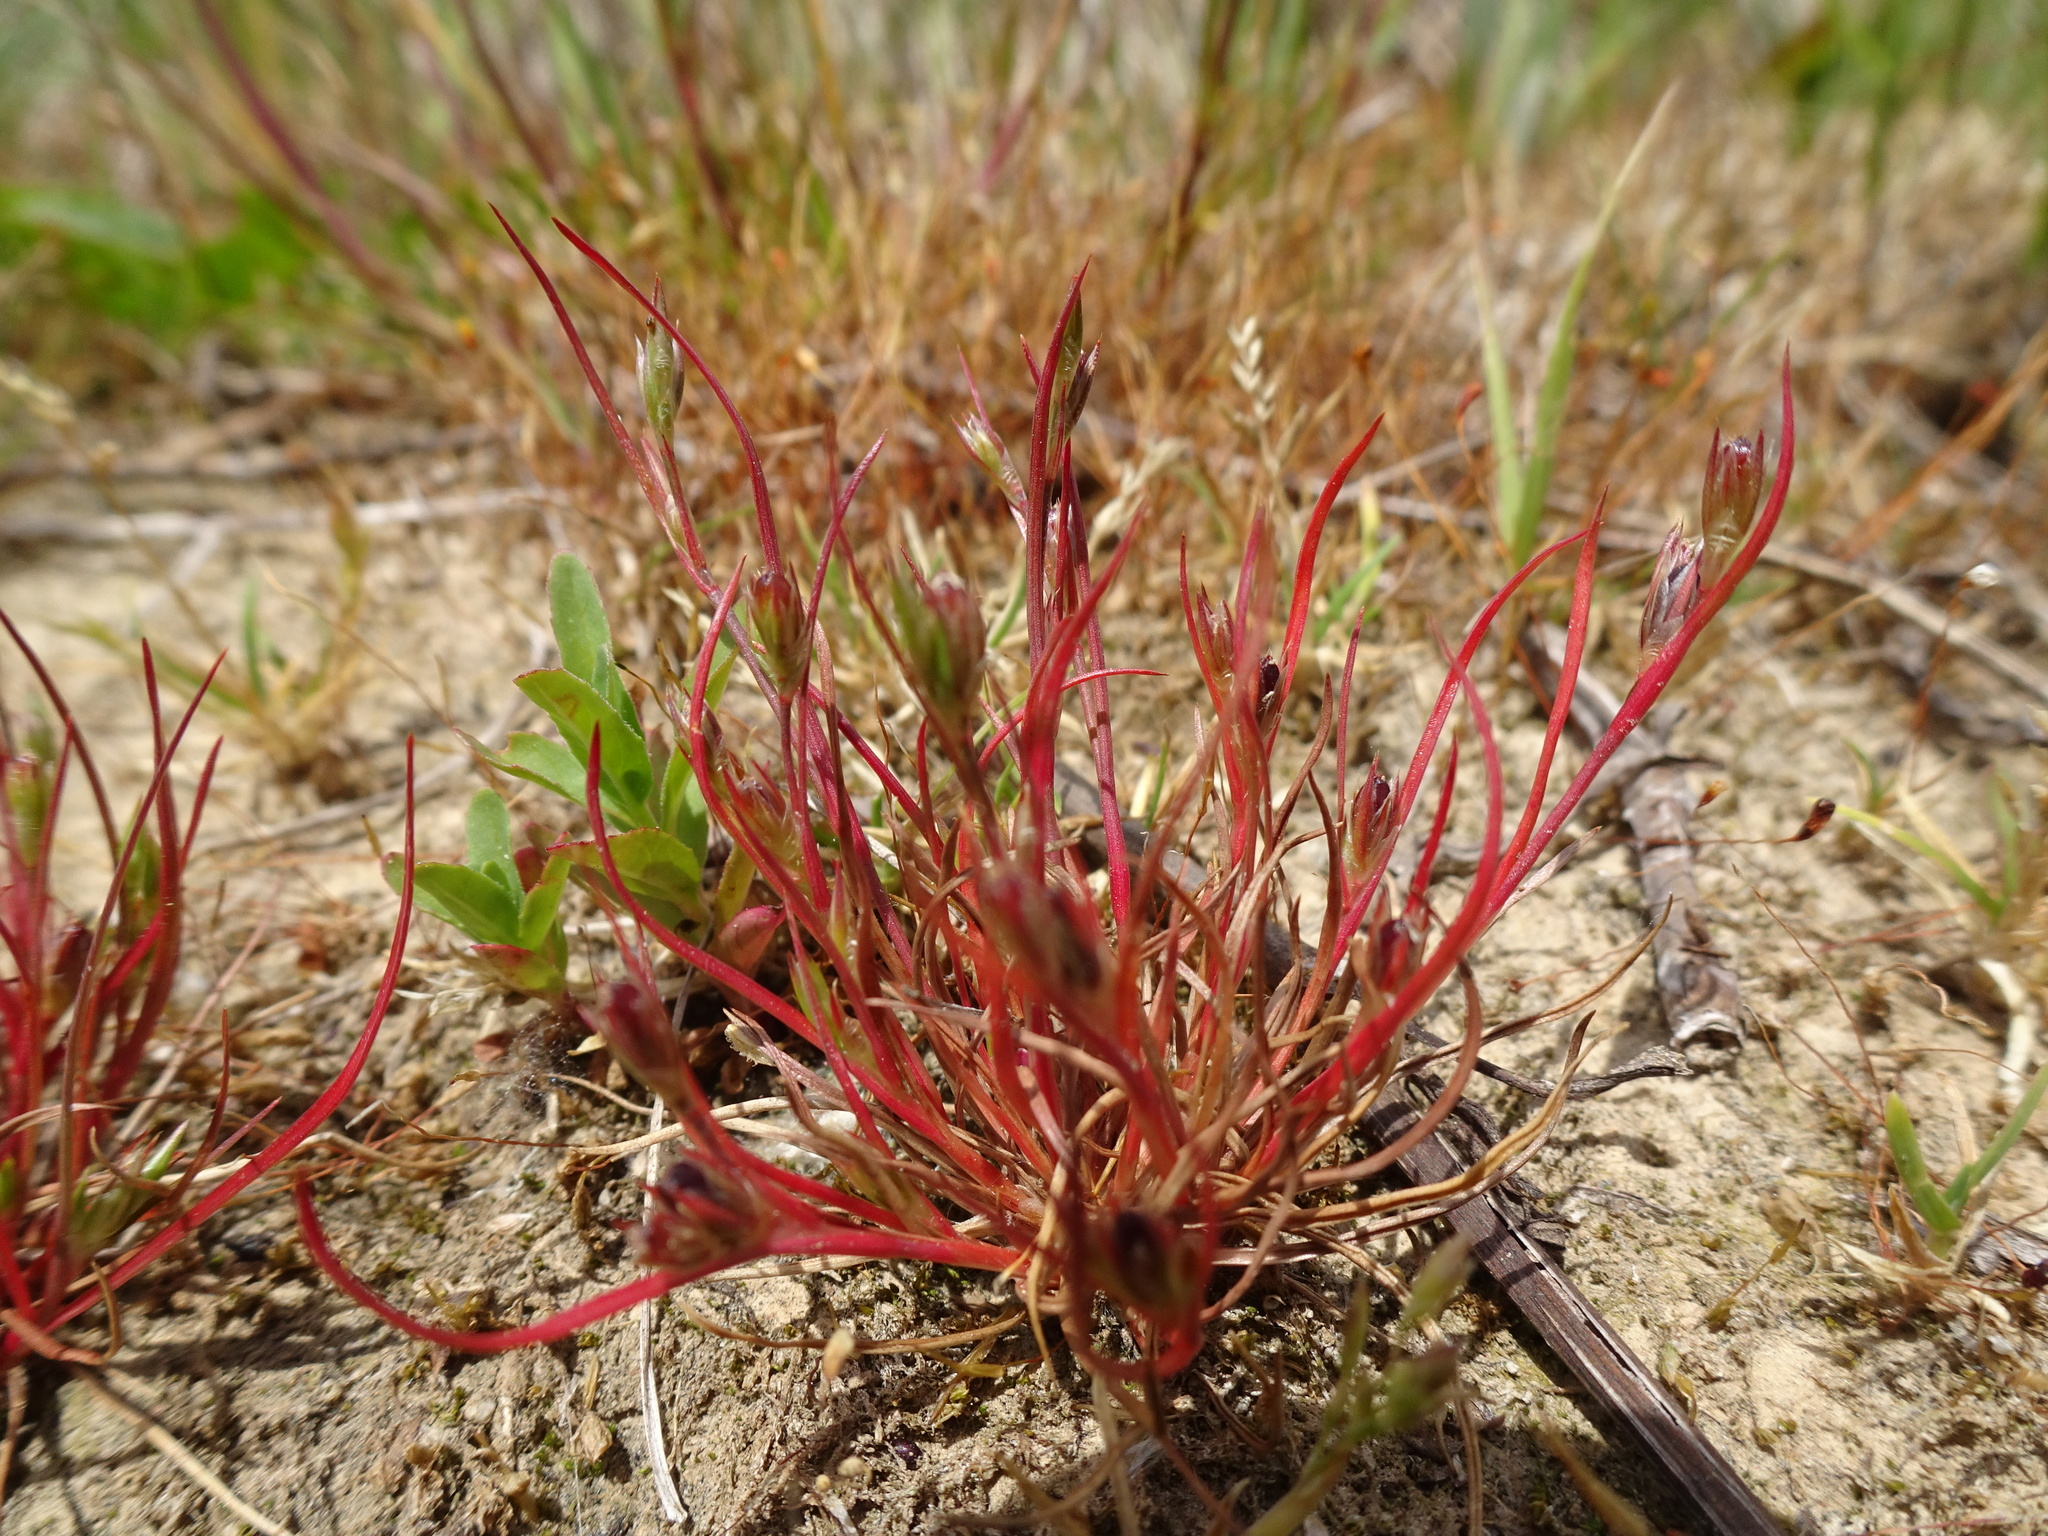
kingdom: Plantae
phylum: Tracheophyta
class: Liliopsida
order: Poales
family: Juncaceae
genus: Juncus
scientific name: Juncus bufonius
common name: Toad rush
